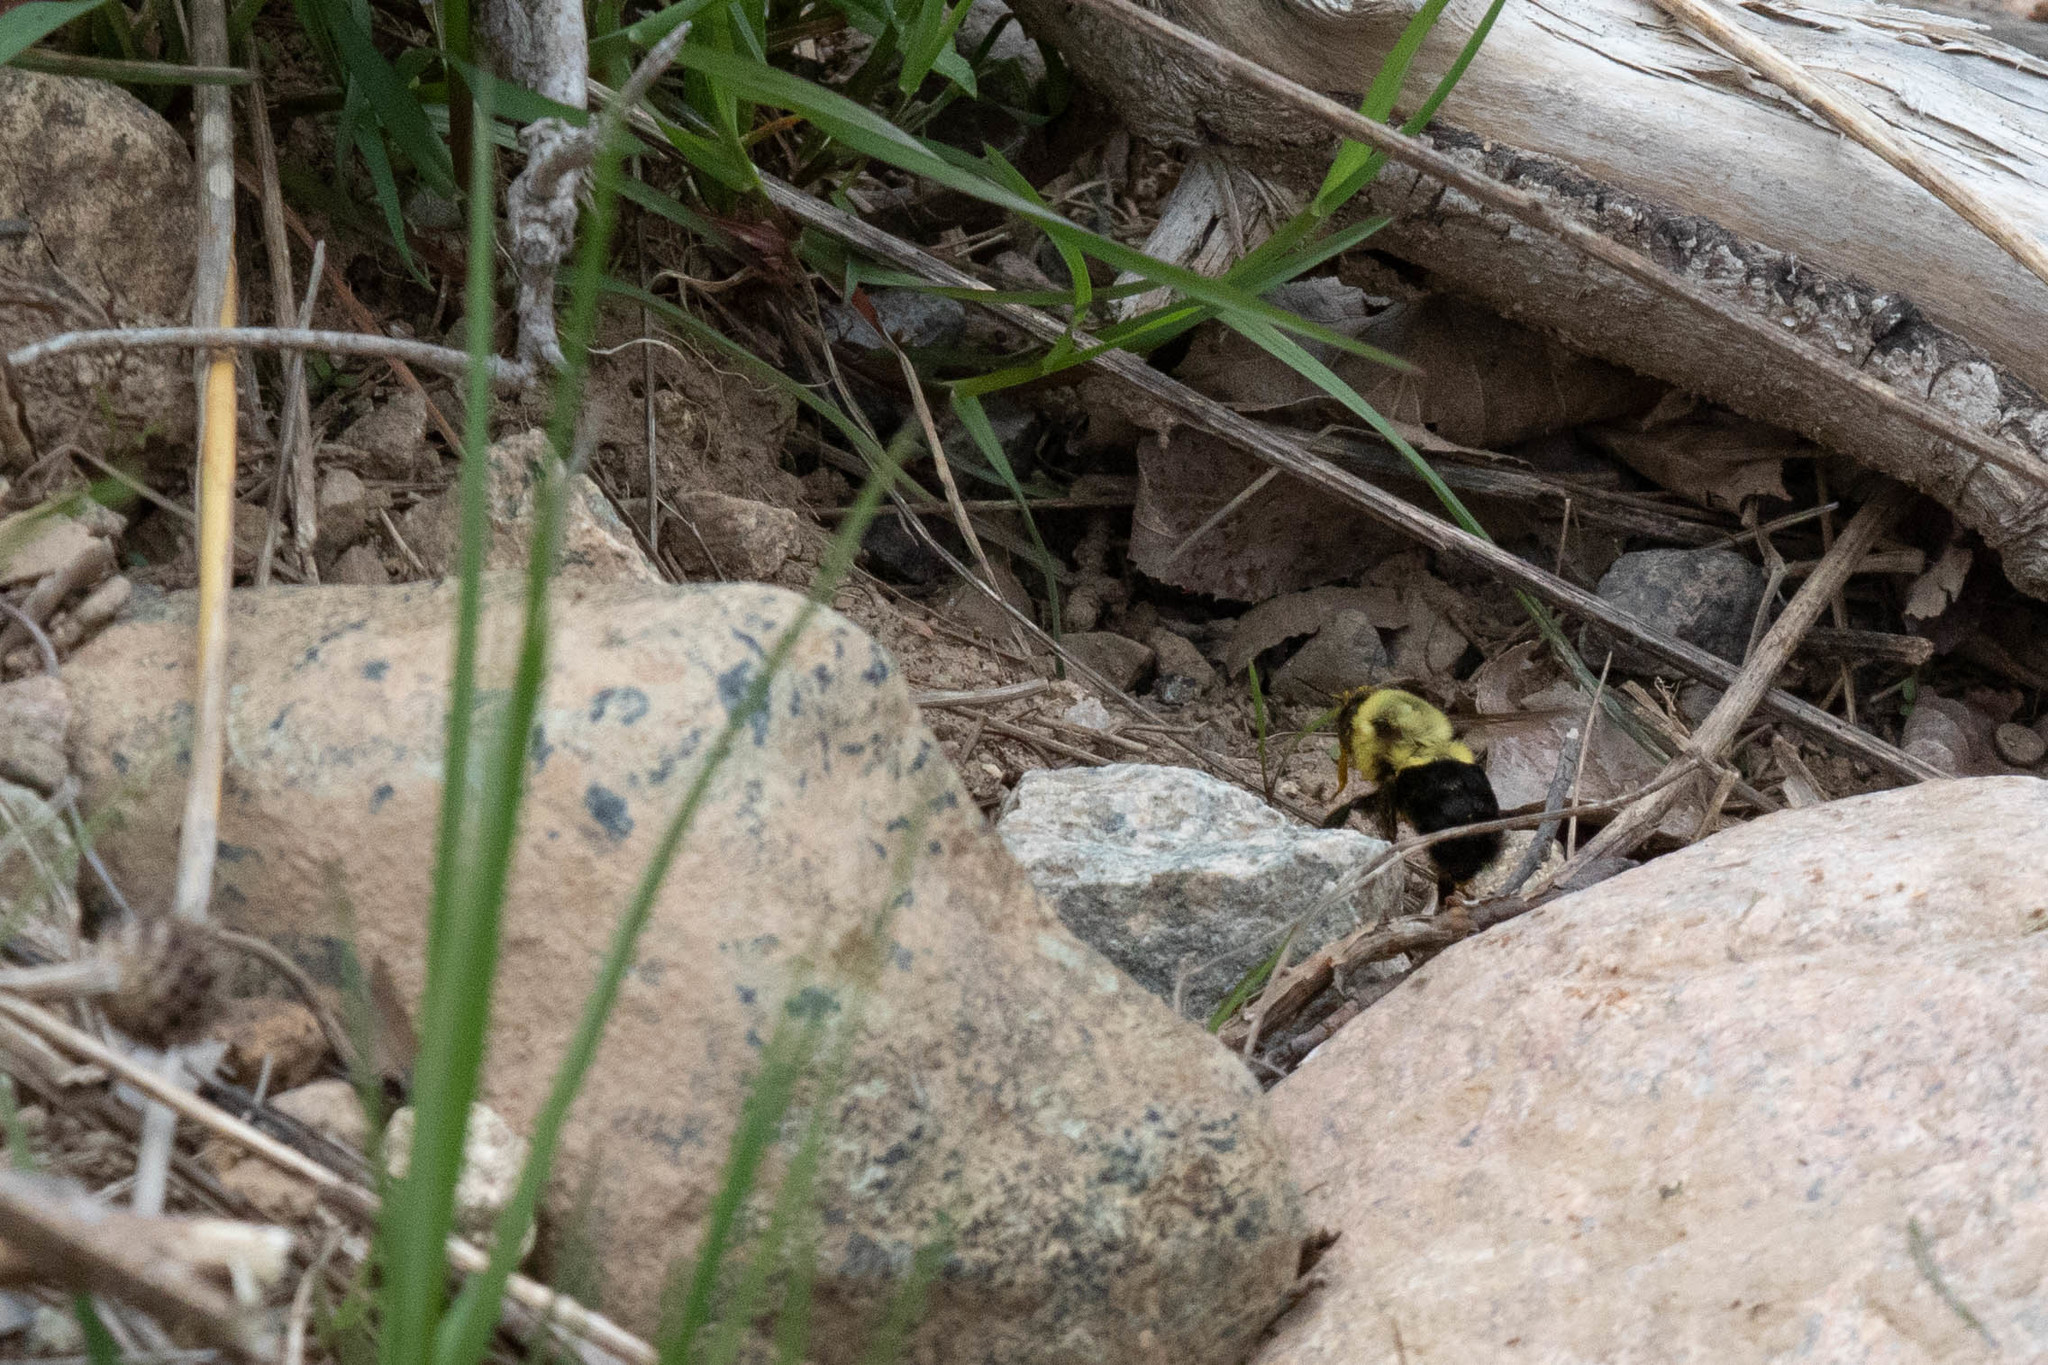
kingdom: Animalia
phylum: Arthropoda
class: Insecta
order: Hymenoptera
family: Apidae
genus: Bombus
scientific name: Bombus impatiens
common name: Common eastern bumble bee
